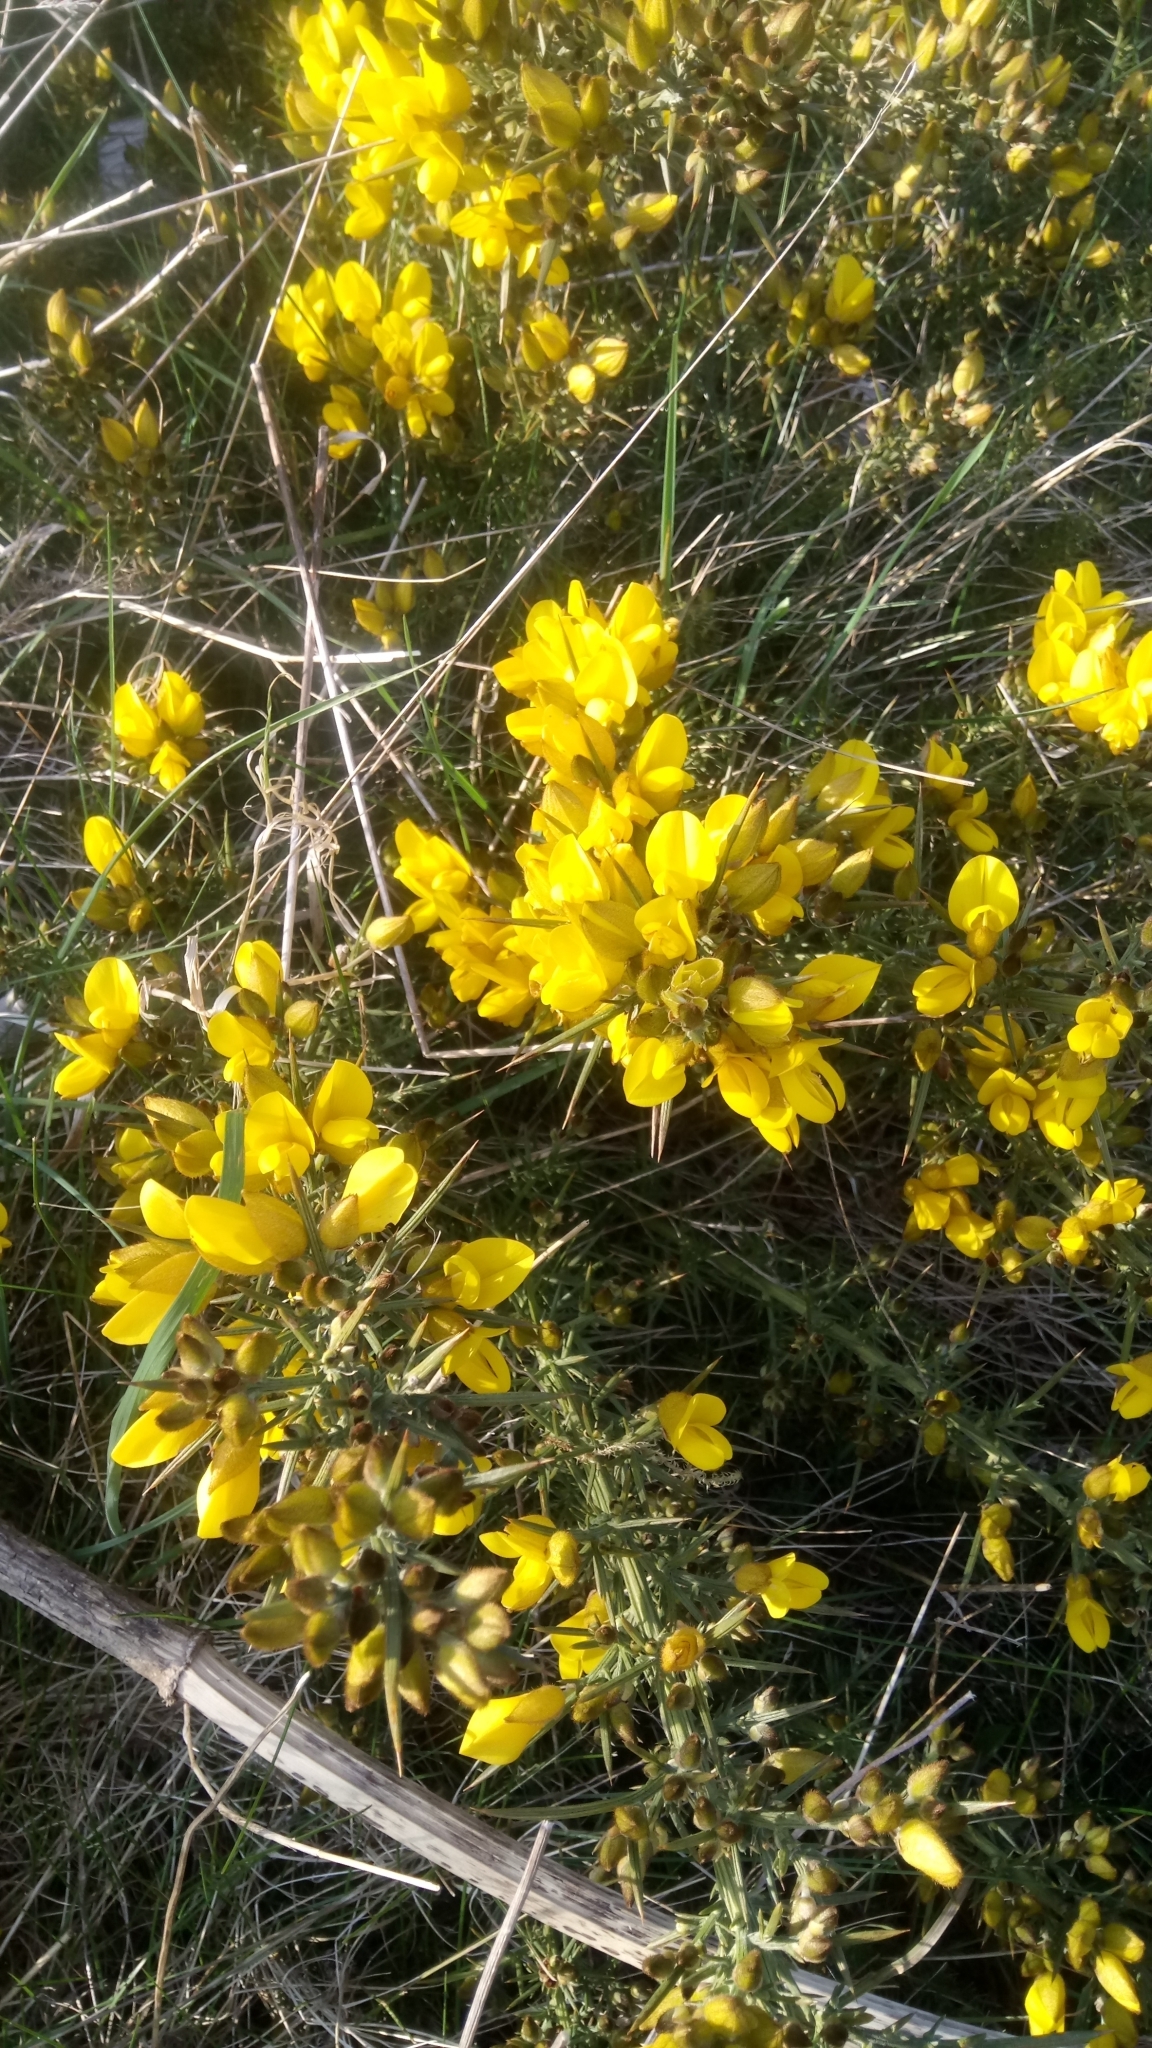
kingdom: Plantae
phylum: Tracheophyta
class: Magnoliopsida
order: Fabales
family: Fabaceae
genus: Ulex
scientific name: Ulex europaeus
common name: Common gorse
